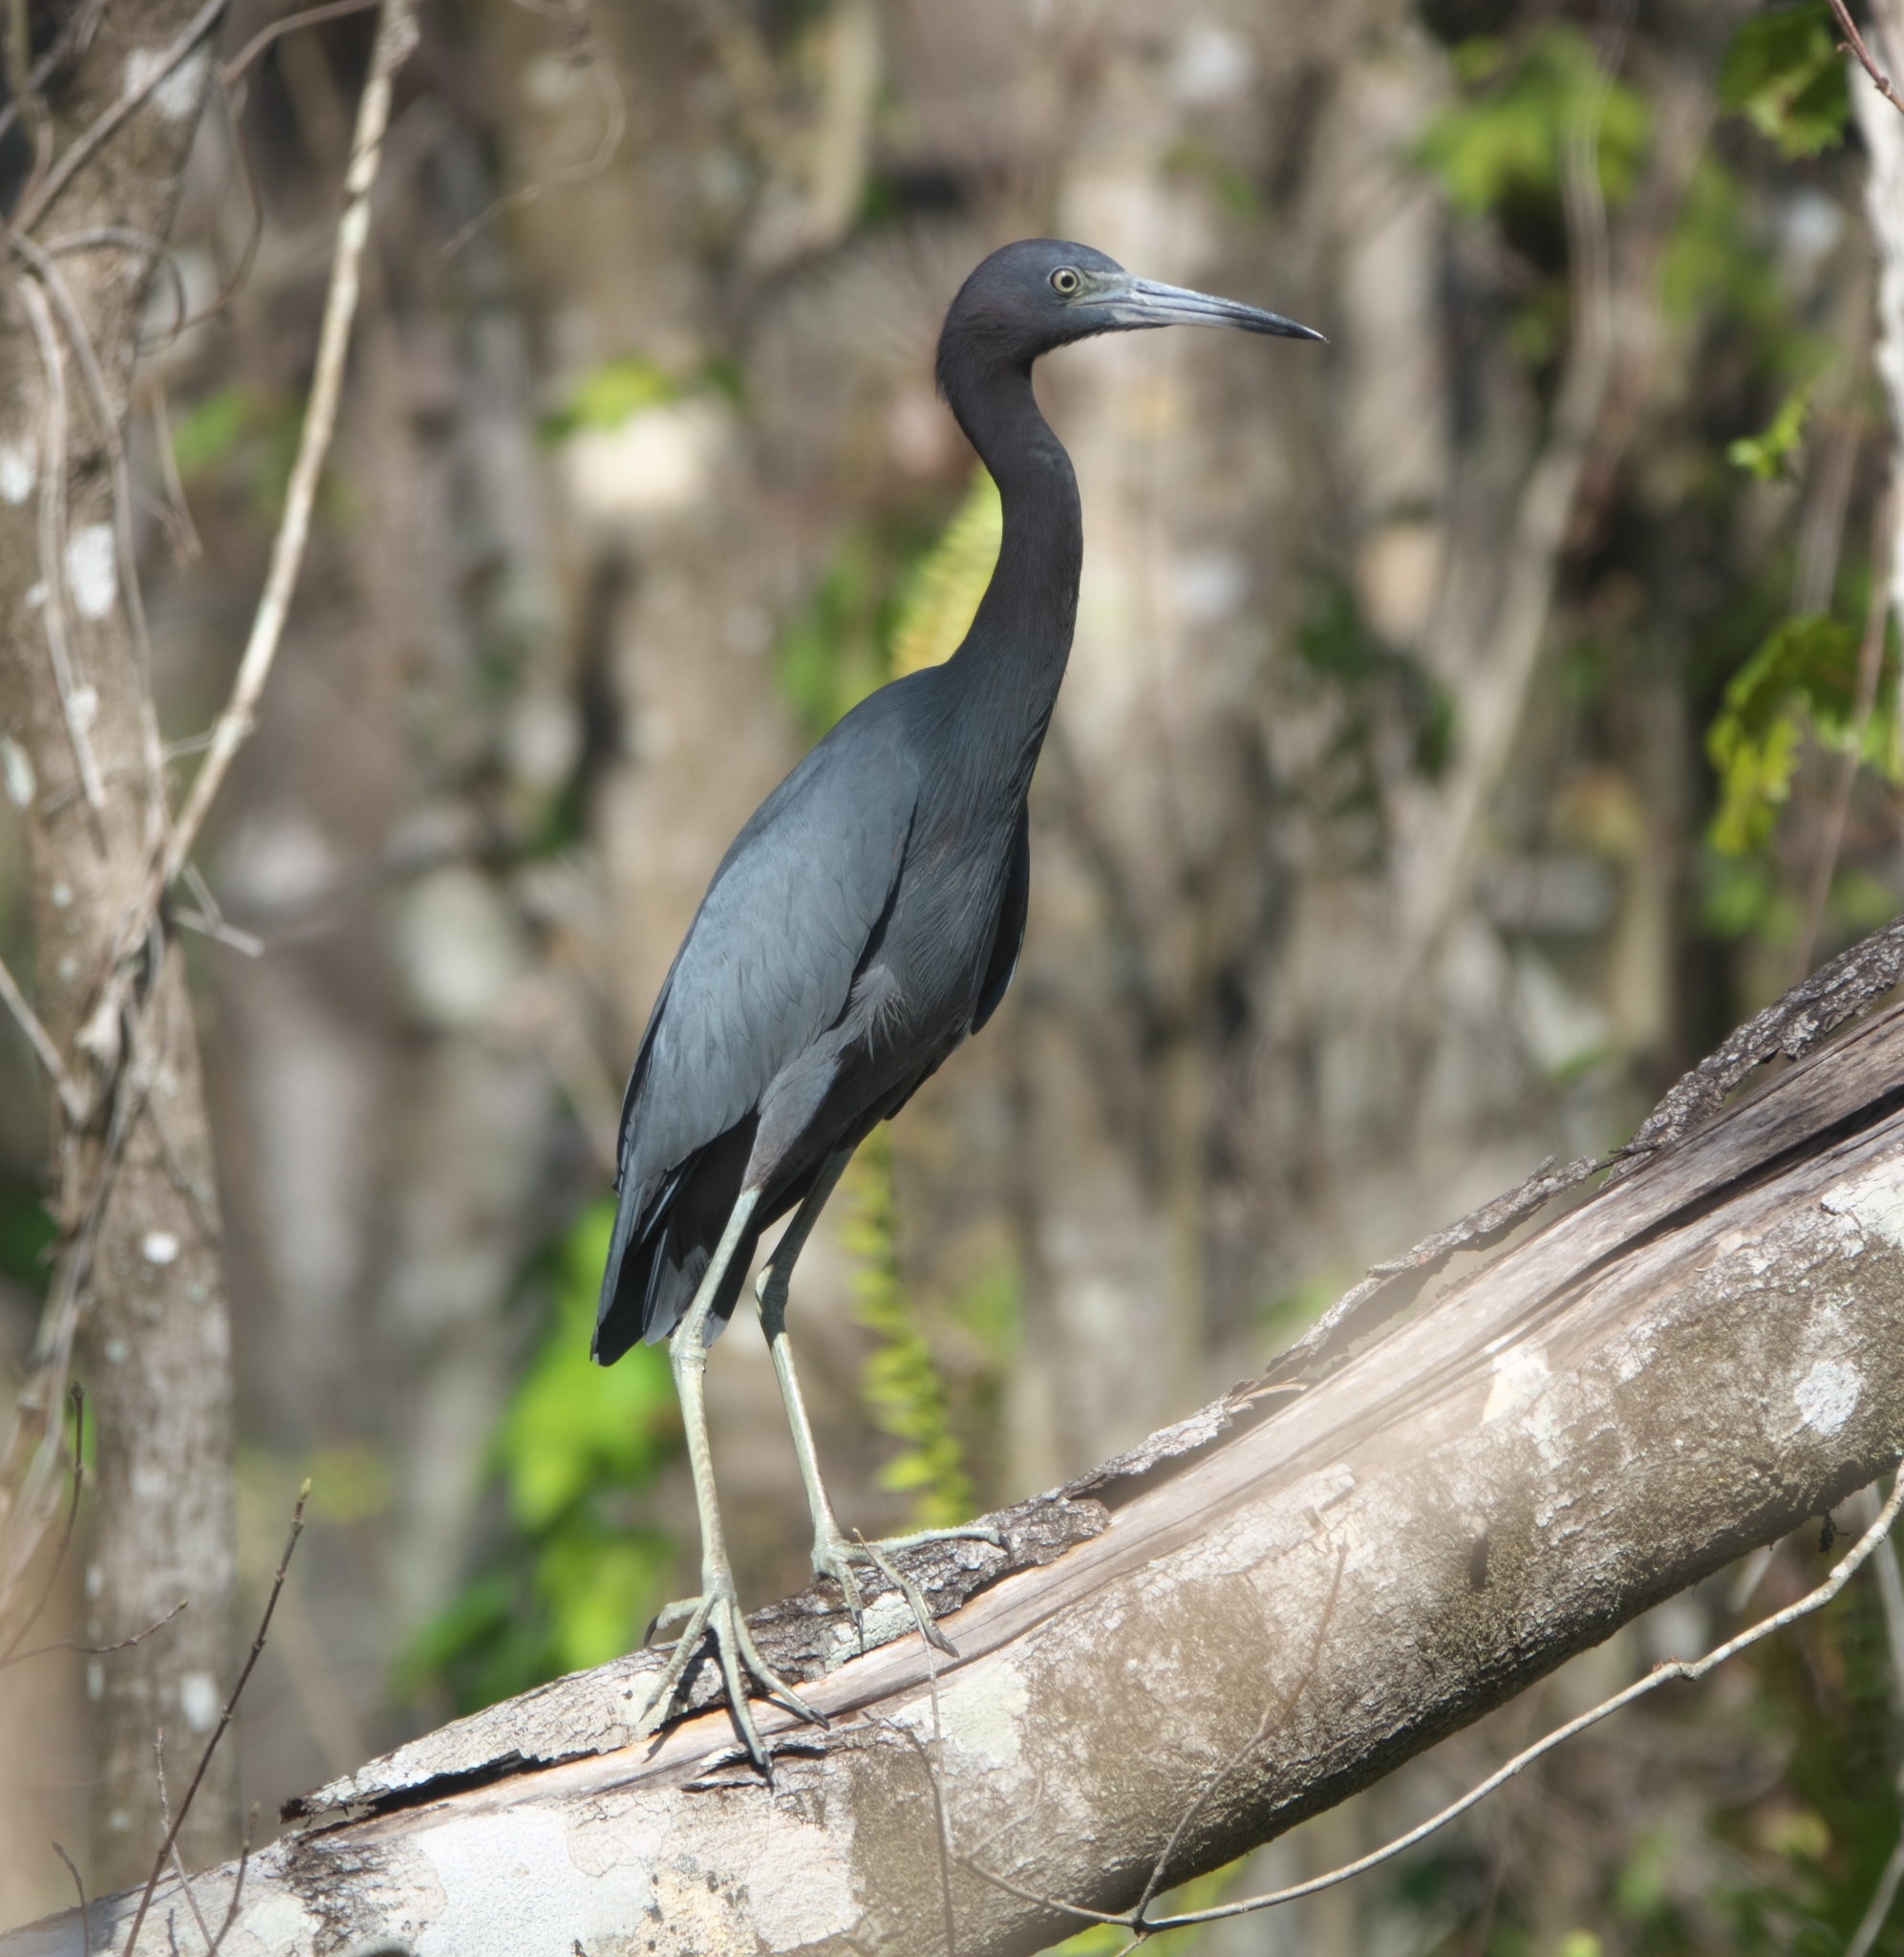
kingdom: Animalia
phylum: Chordata
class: Aves
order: Pelecaniformes
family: Ardeidae
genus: Egretta
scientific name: Egretta caerulea
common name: Little blue heron
